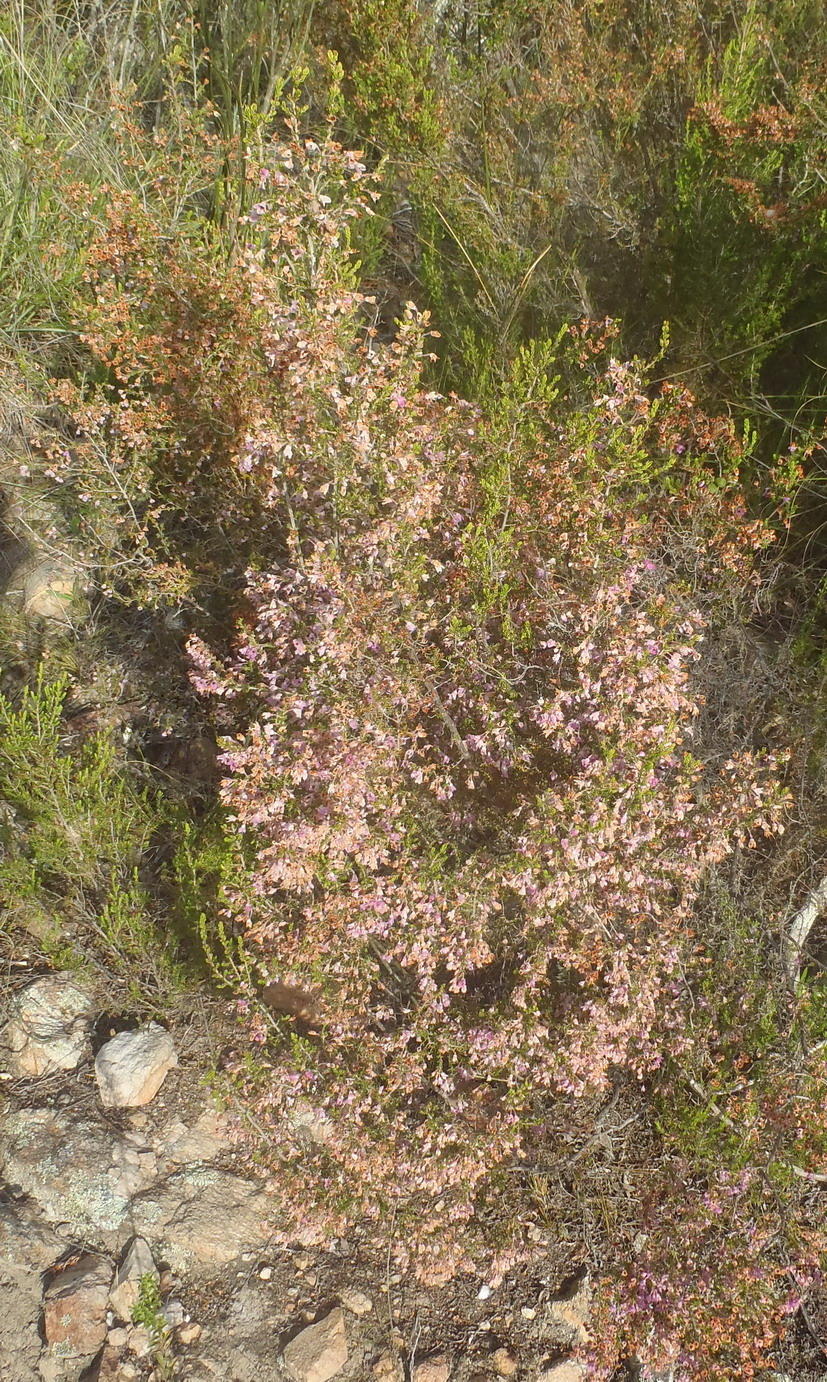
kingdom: Plantae
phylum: Tracheophyta
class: Magnoliopsida
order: Ericales
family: Ericaceae
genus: Erica
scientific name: Erica newdigatei
